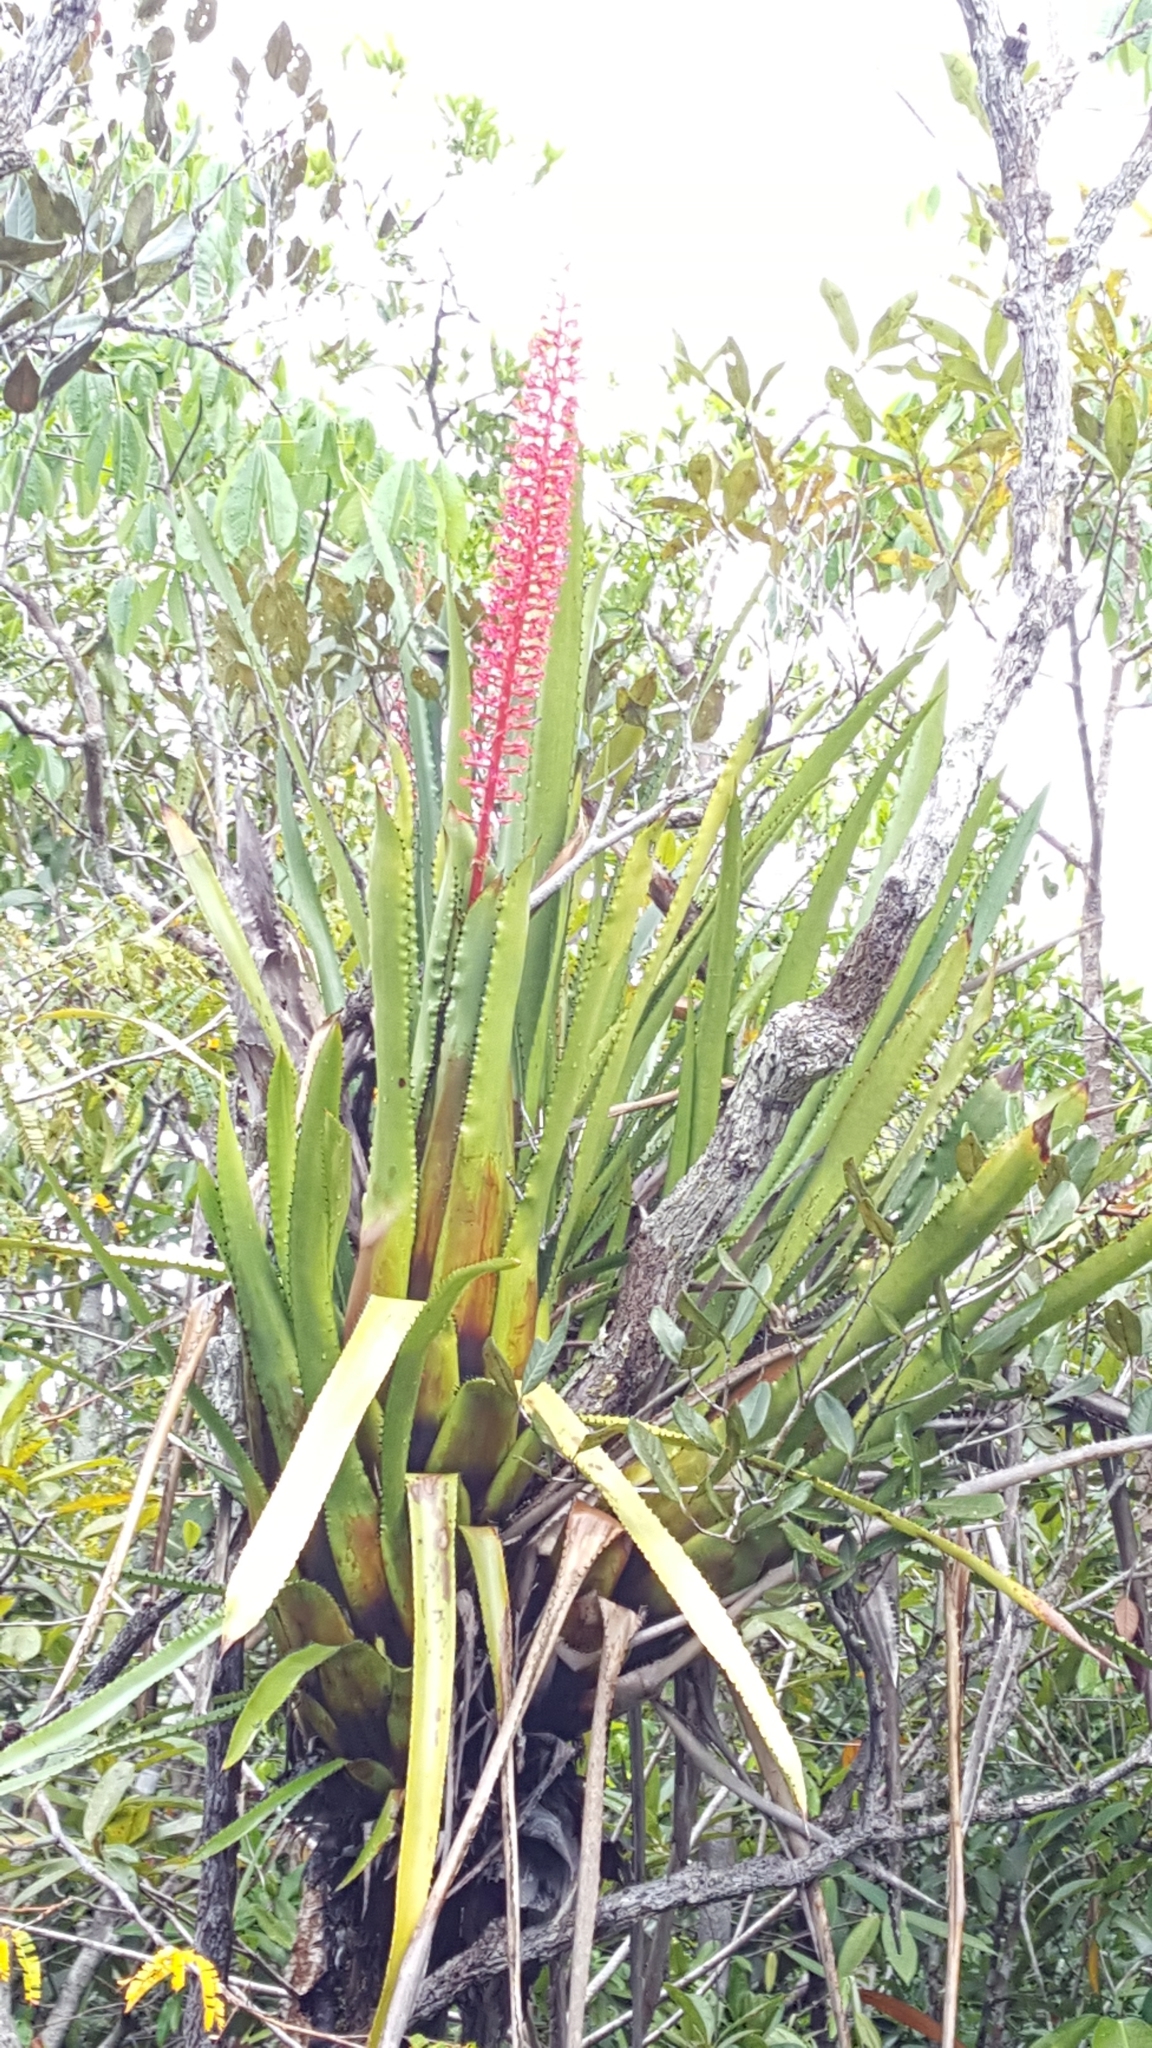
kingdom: Plantae
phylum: Tracheophyta
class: Liliopsida
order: Poales
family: Bromeliaceae
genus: Aechmea
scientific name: Aechmea huebneri
